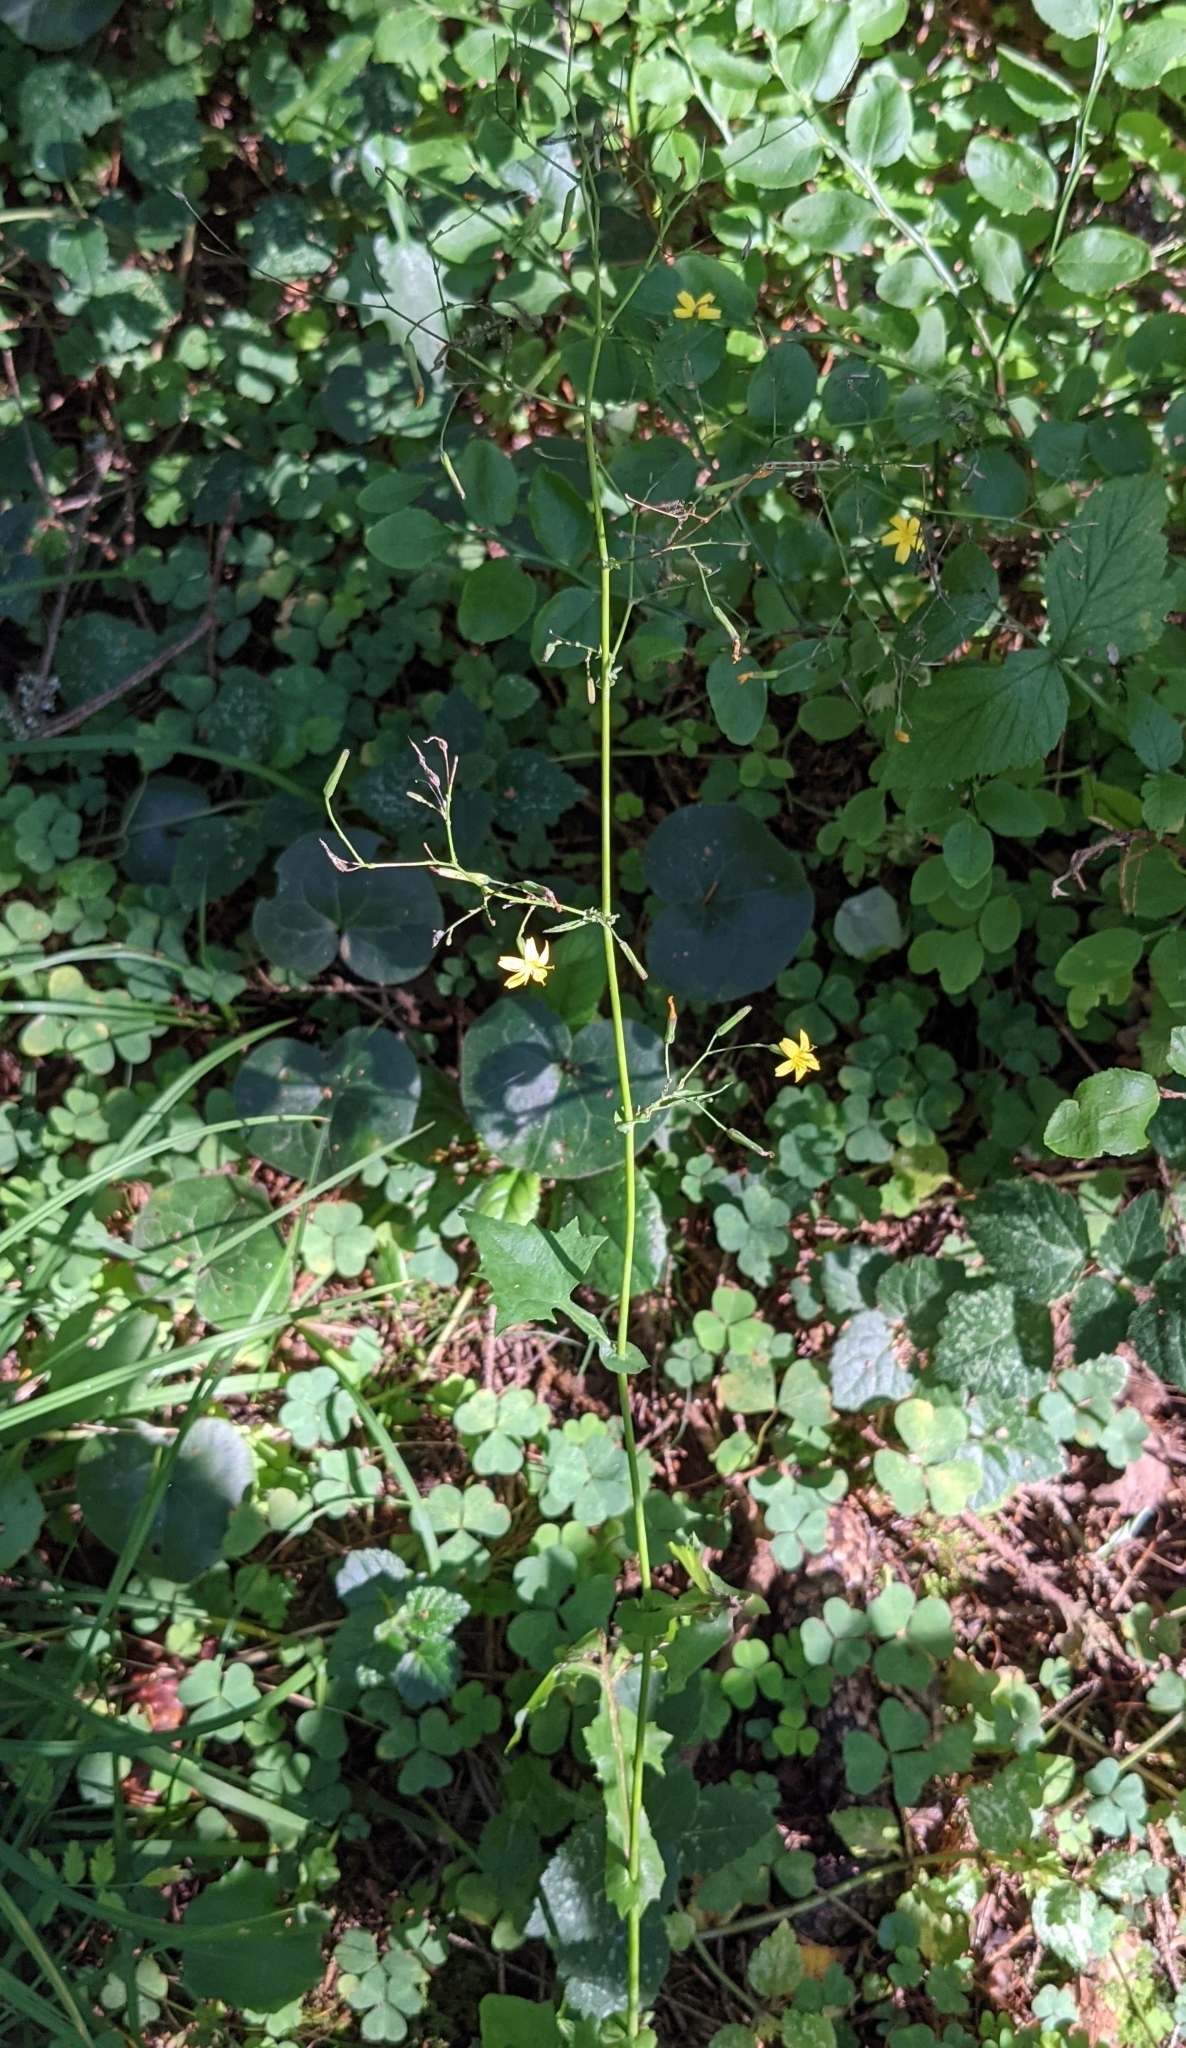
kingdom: Plantae
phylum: Tracheophyta
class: Magnoliopsida
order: Asterales
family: Asteraceae
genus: Mycelis
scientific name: Mycelis muralis
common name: Wall lettuce
